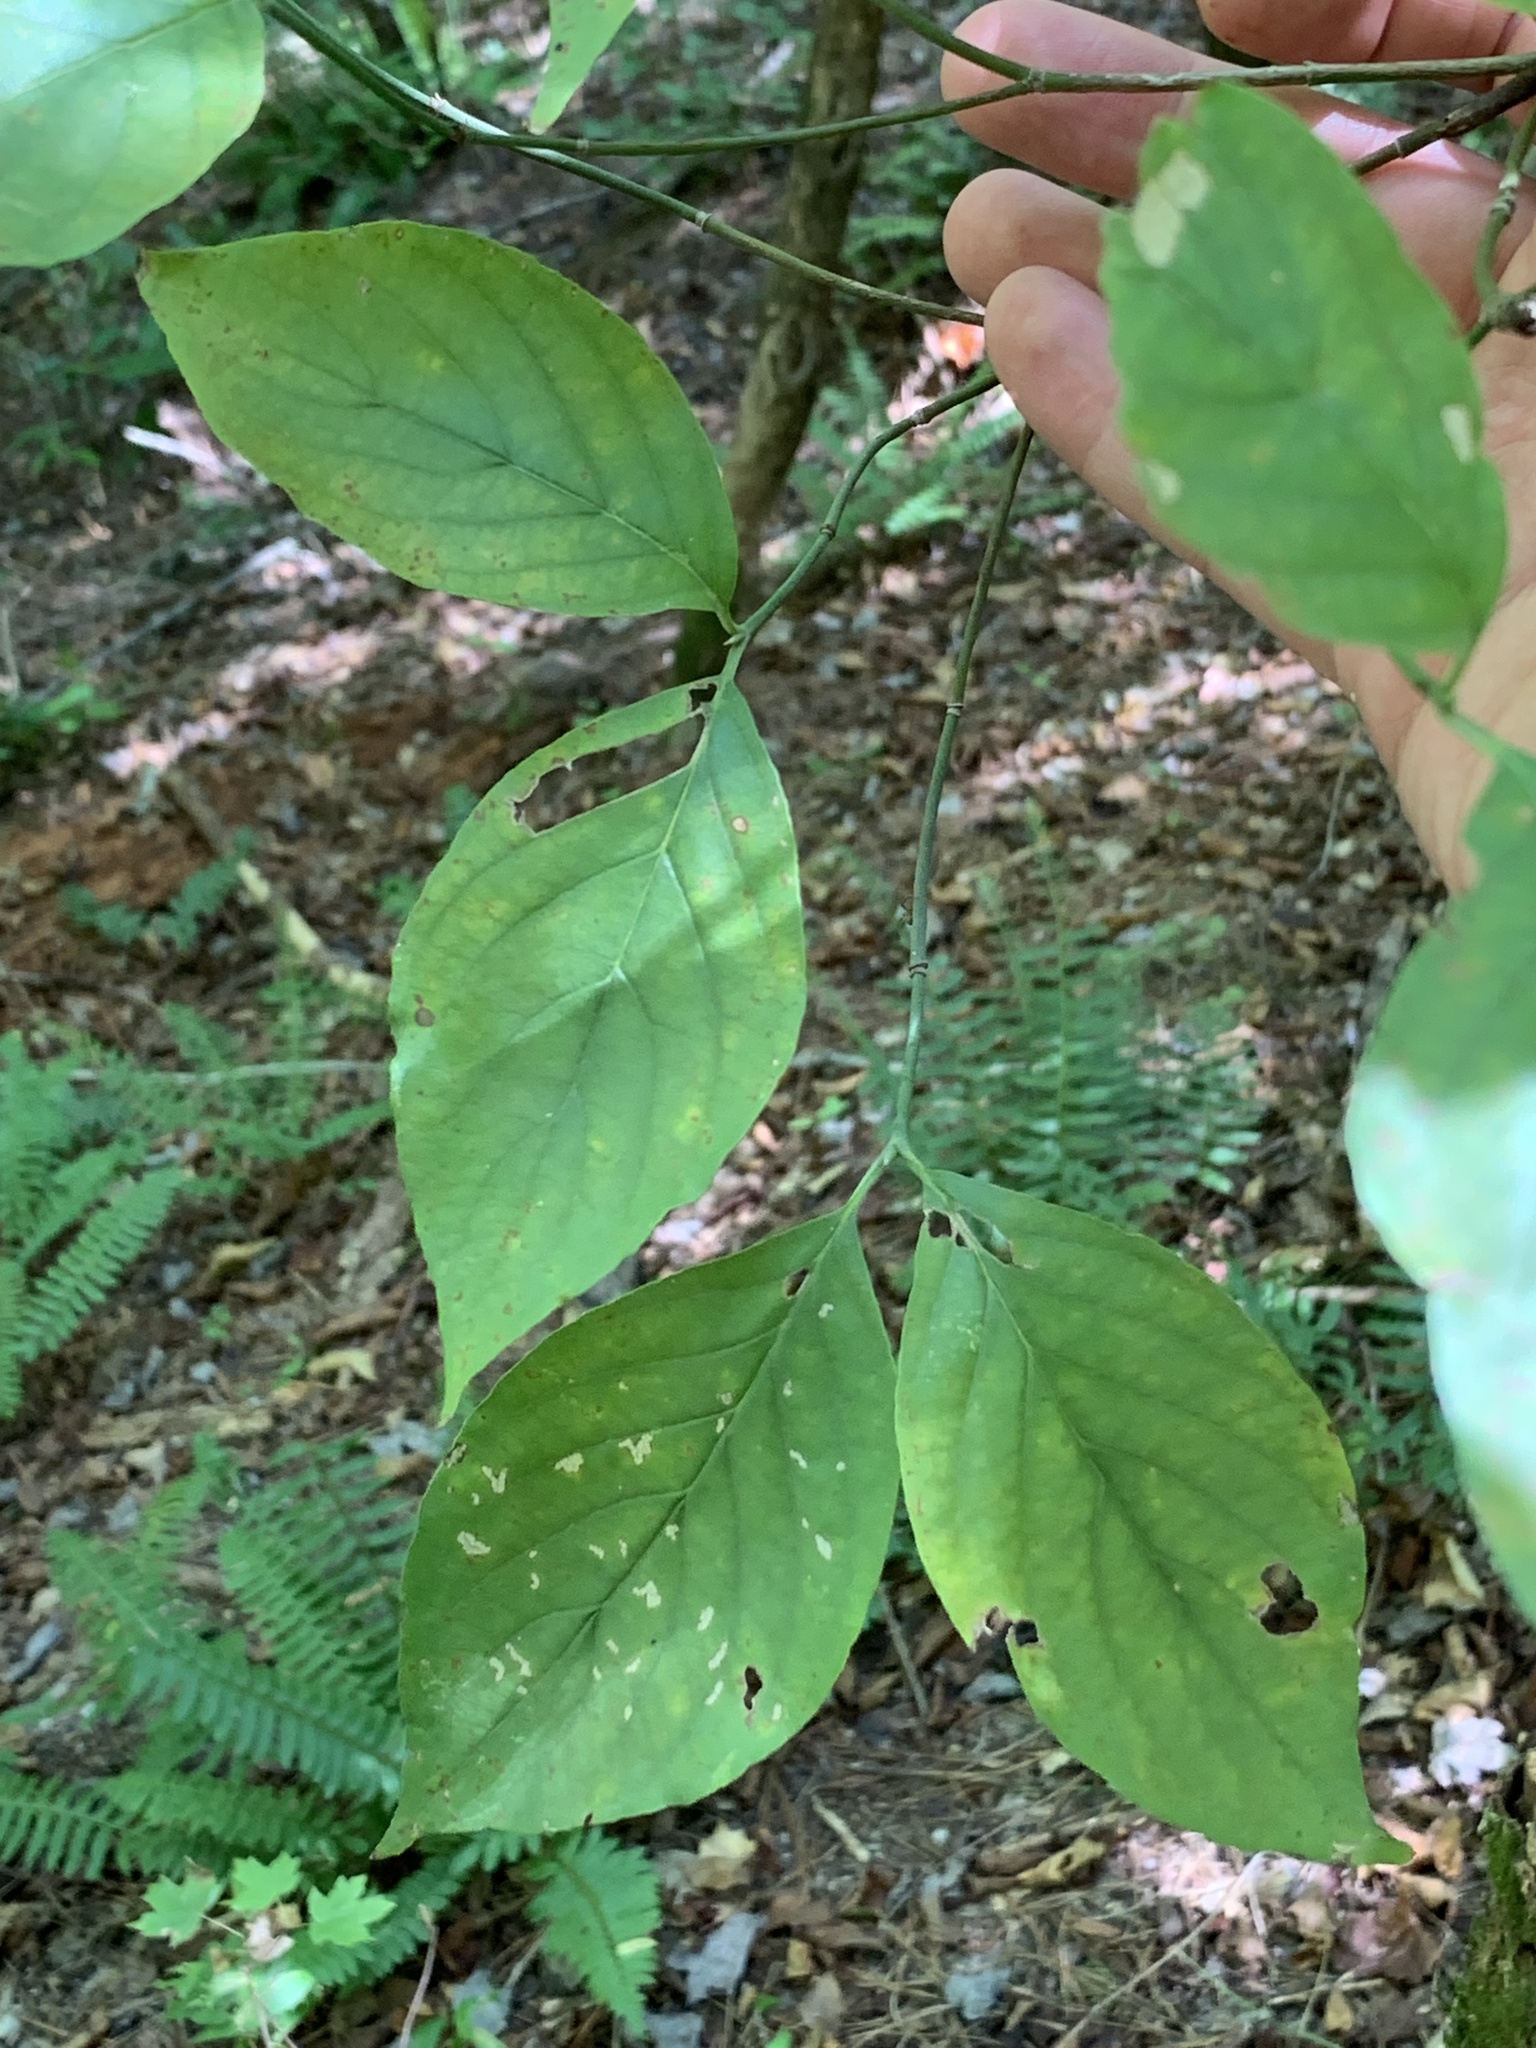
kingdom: Plantae
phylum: Tracheophyta
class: Magnoliopsida
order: Cornales
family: Cornaceae
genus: Cornus
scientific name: Cornus florida
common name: Flowering dogwood
